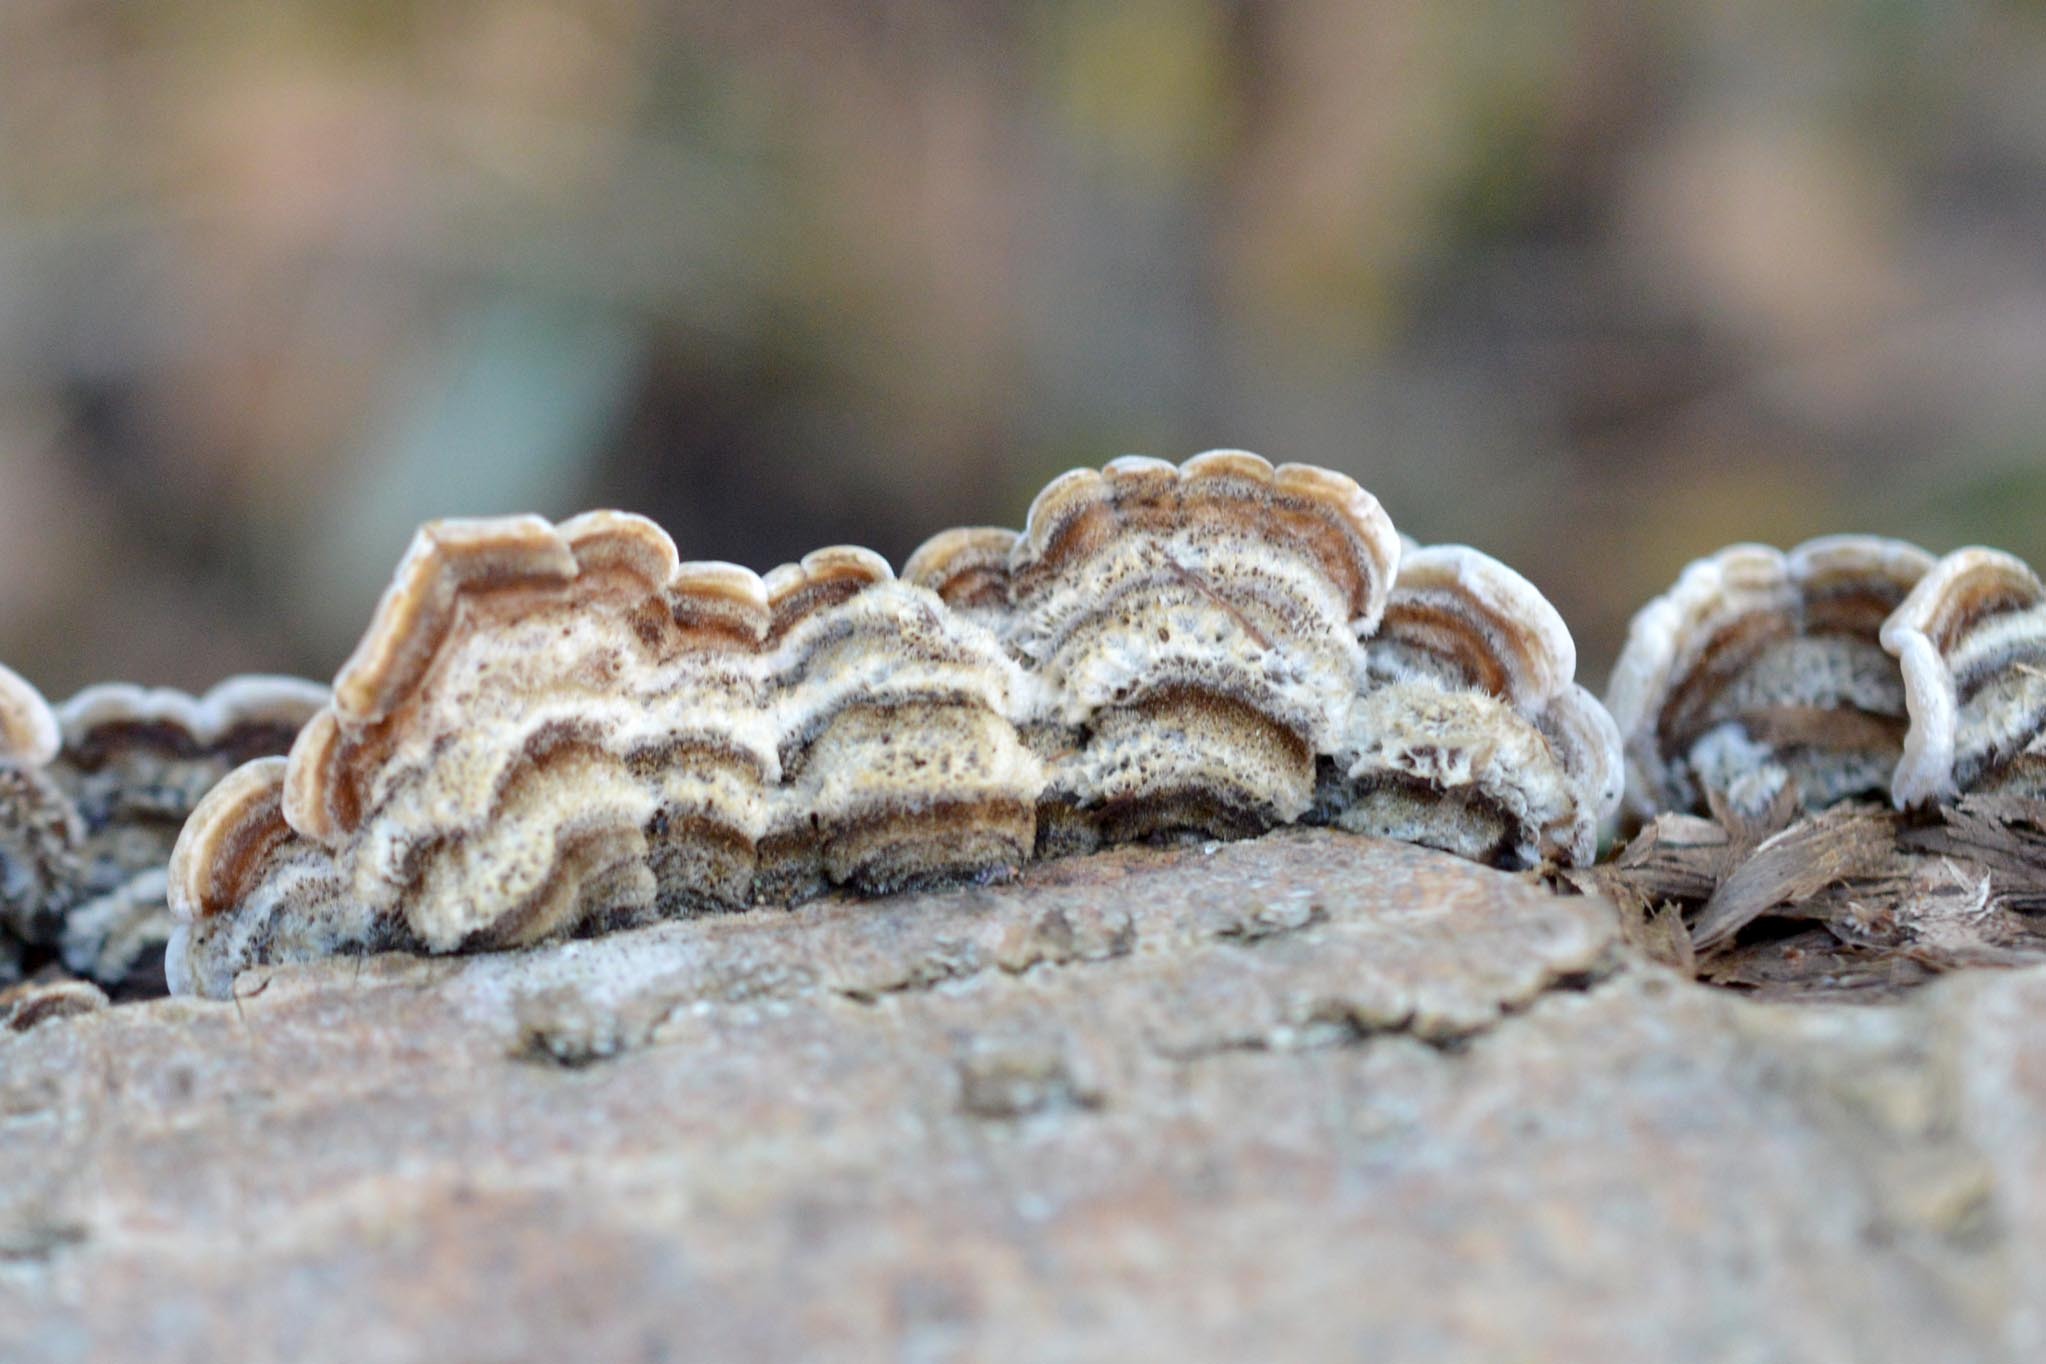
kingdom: Fungi
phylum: Basidiomycota
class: Agaricomycetes
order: Auriculariales
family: Auriculariaceae
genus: Auricularia
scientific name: Auricularia mesenterica
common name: Tripe fungus
